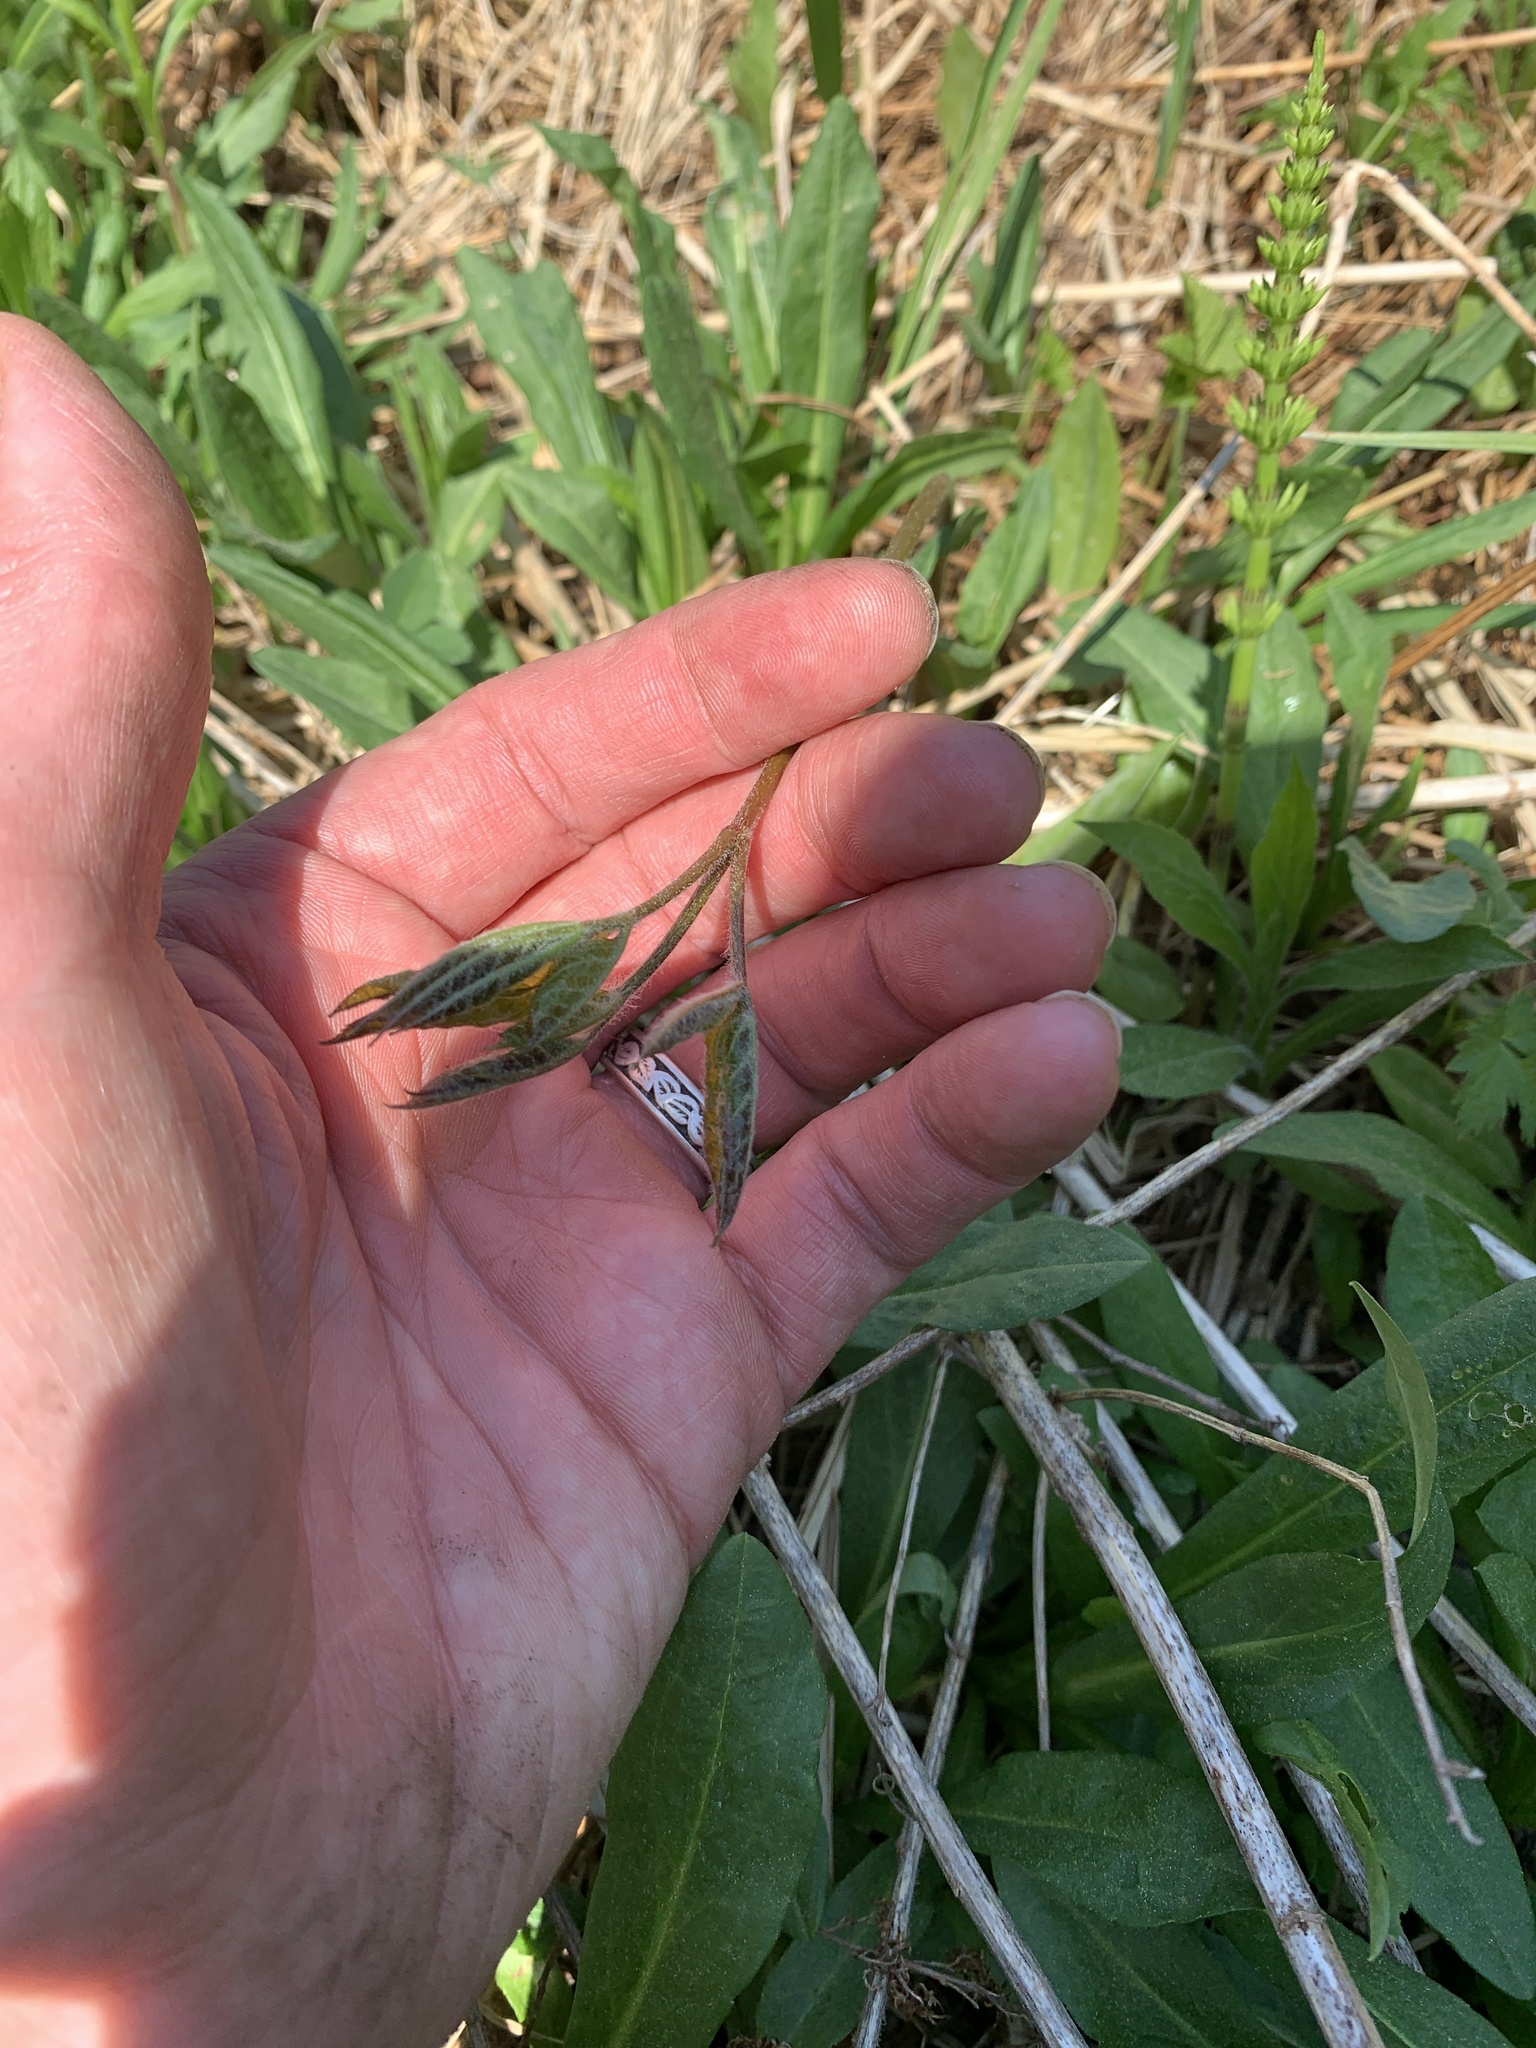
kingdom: Plantae
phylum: Tracheophyta
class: Magnoliopsida
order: Apiales
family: Araliaceae
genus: Aralia
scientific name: Aralia nudicaulis
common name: Wild sarsaparilla
